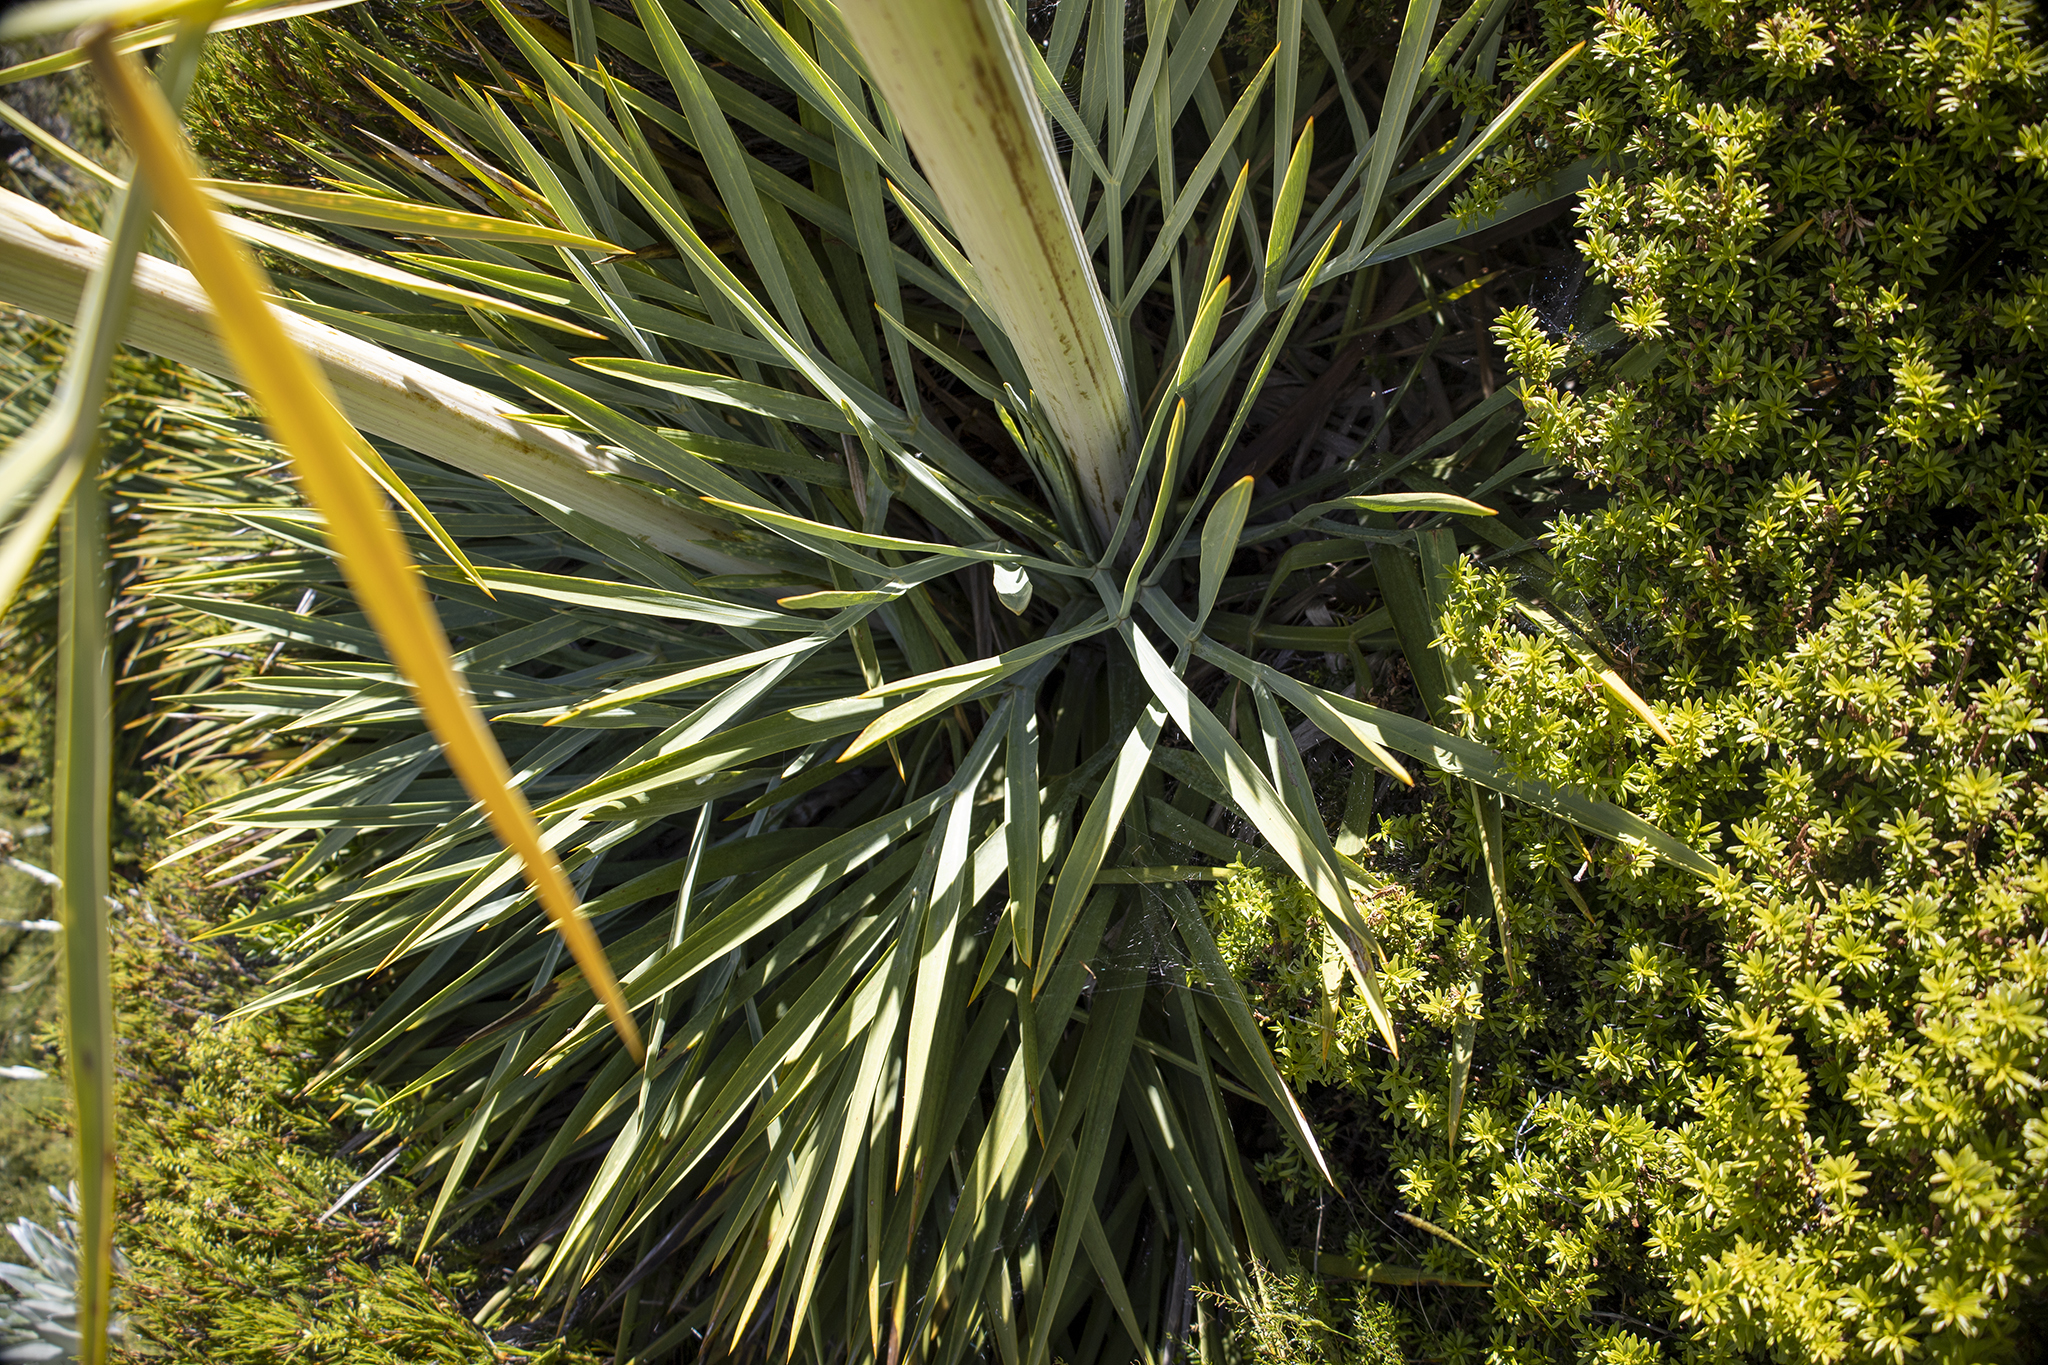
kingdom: Plantae
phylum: Tracheophyta
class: Magnoliopsida
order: Apiales
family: Apiaceae
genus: Aciphylla
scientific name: Aciphylla scott-thomsonii
